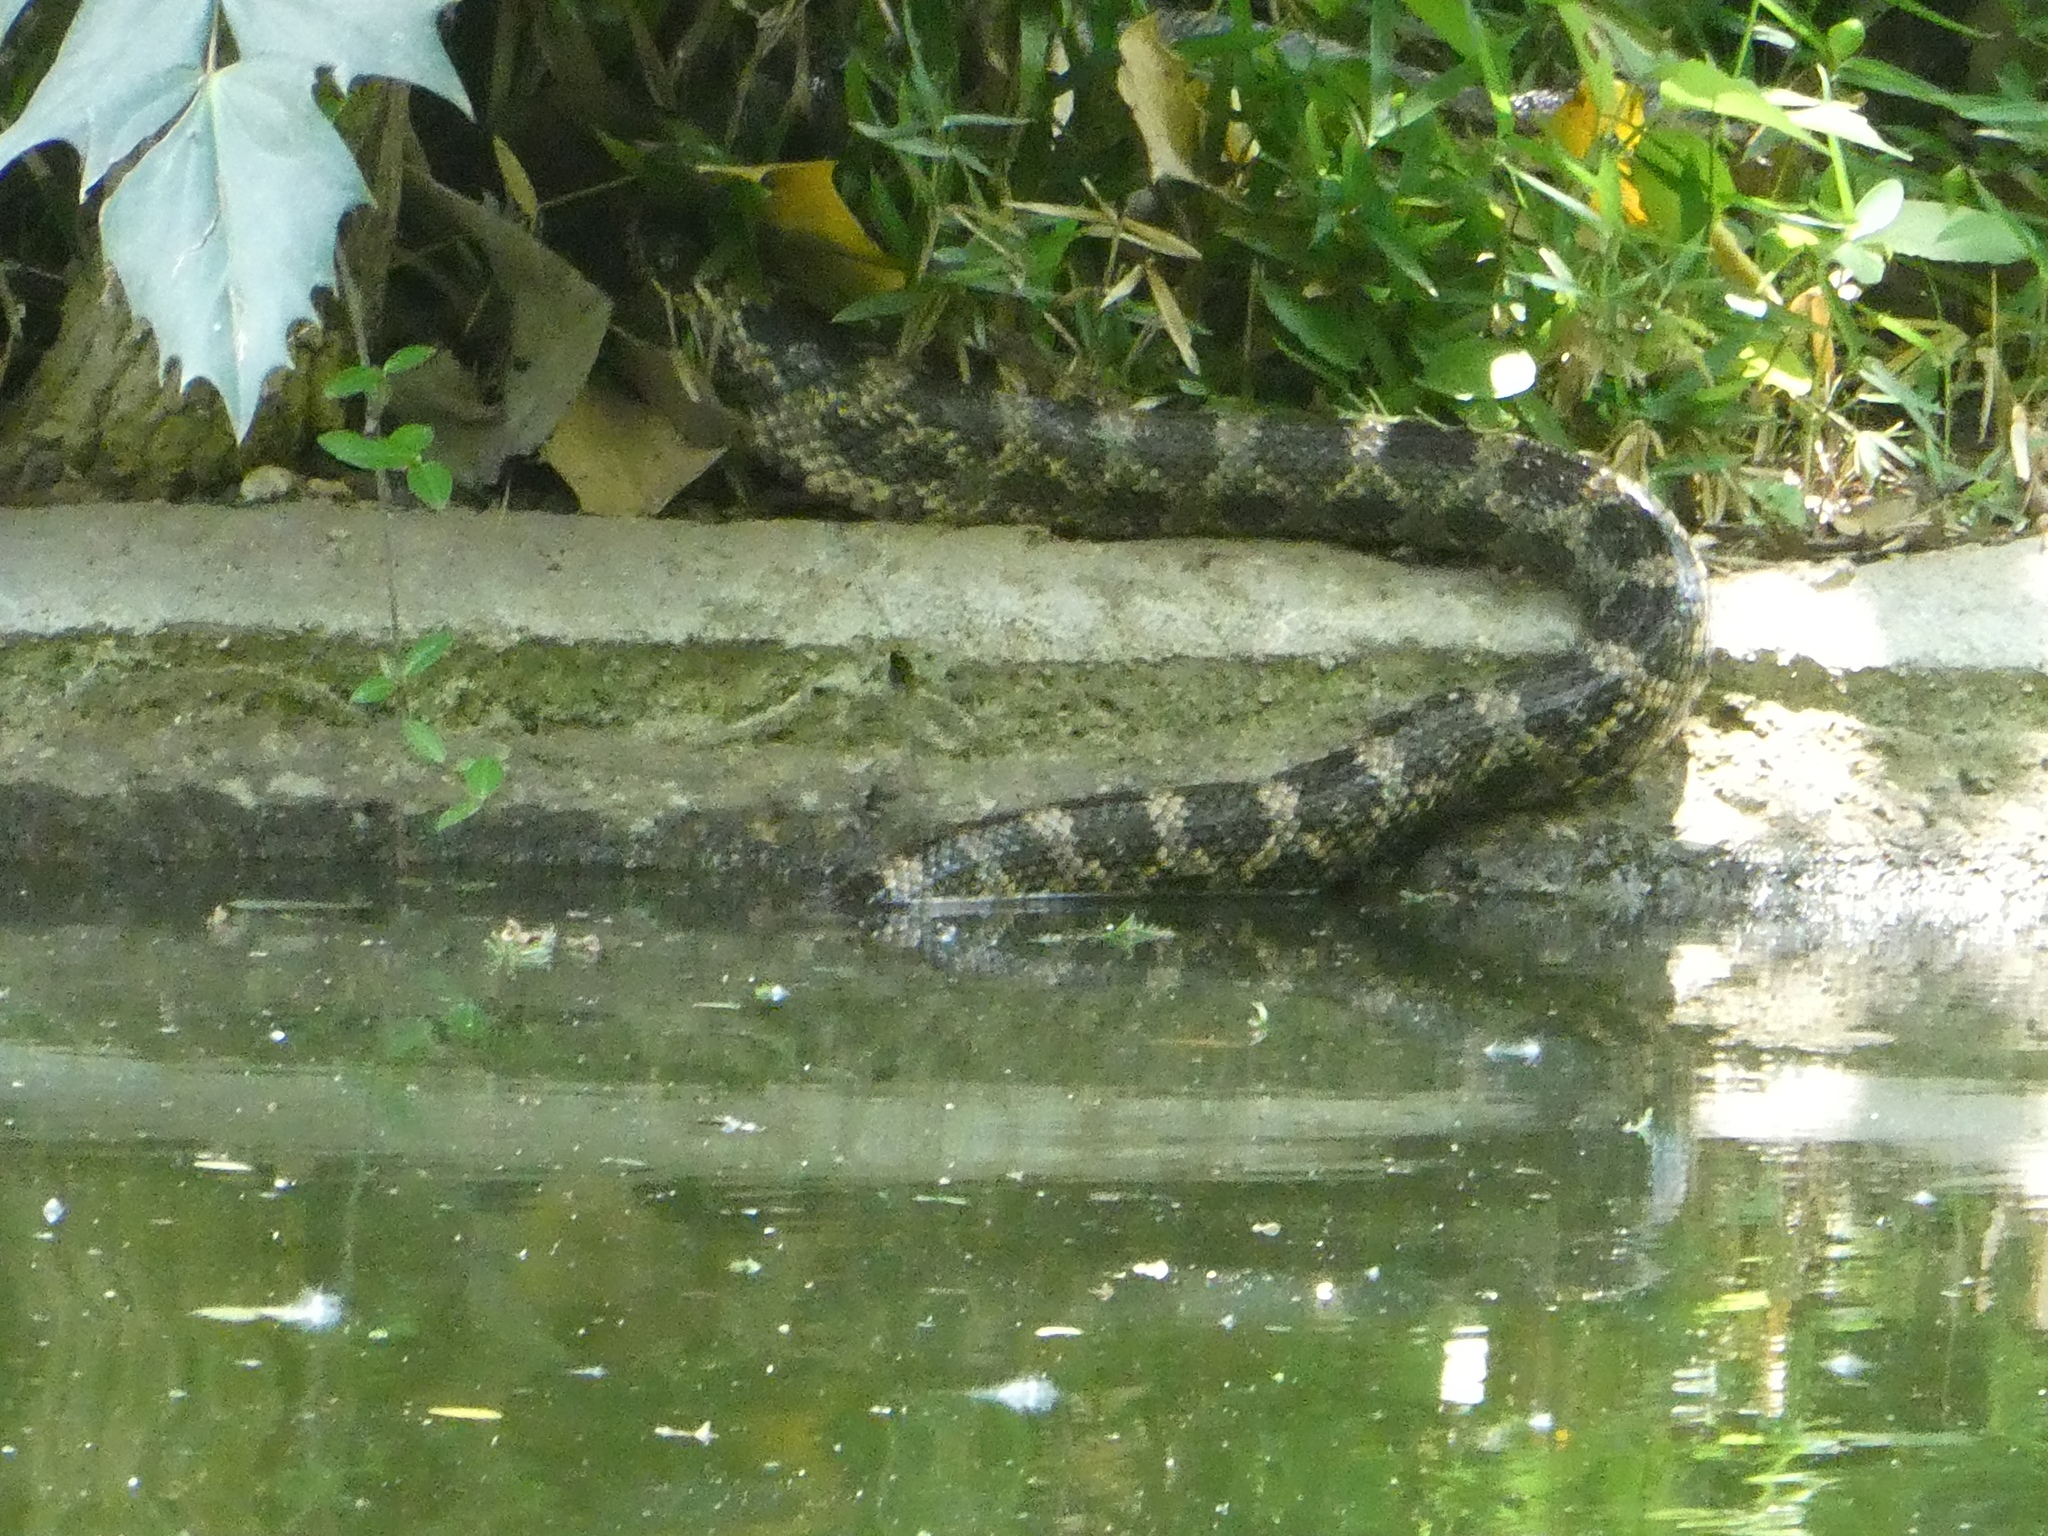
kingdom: Animalia
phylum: Chordata
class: Squamata
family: Colubridae
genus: Pantherophis
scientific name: Pantherophis obsoletus
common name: Black rat snake
